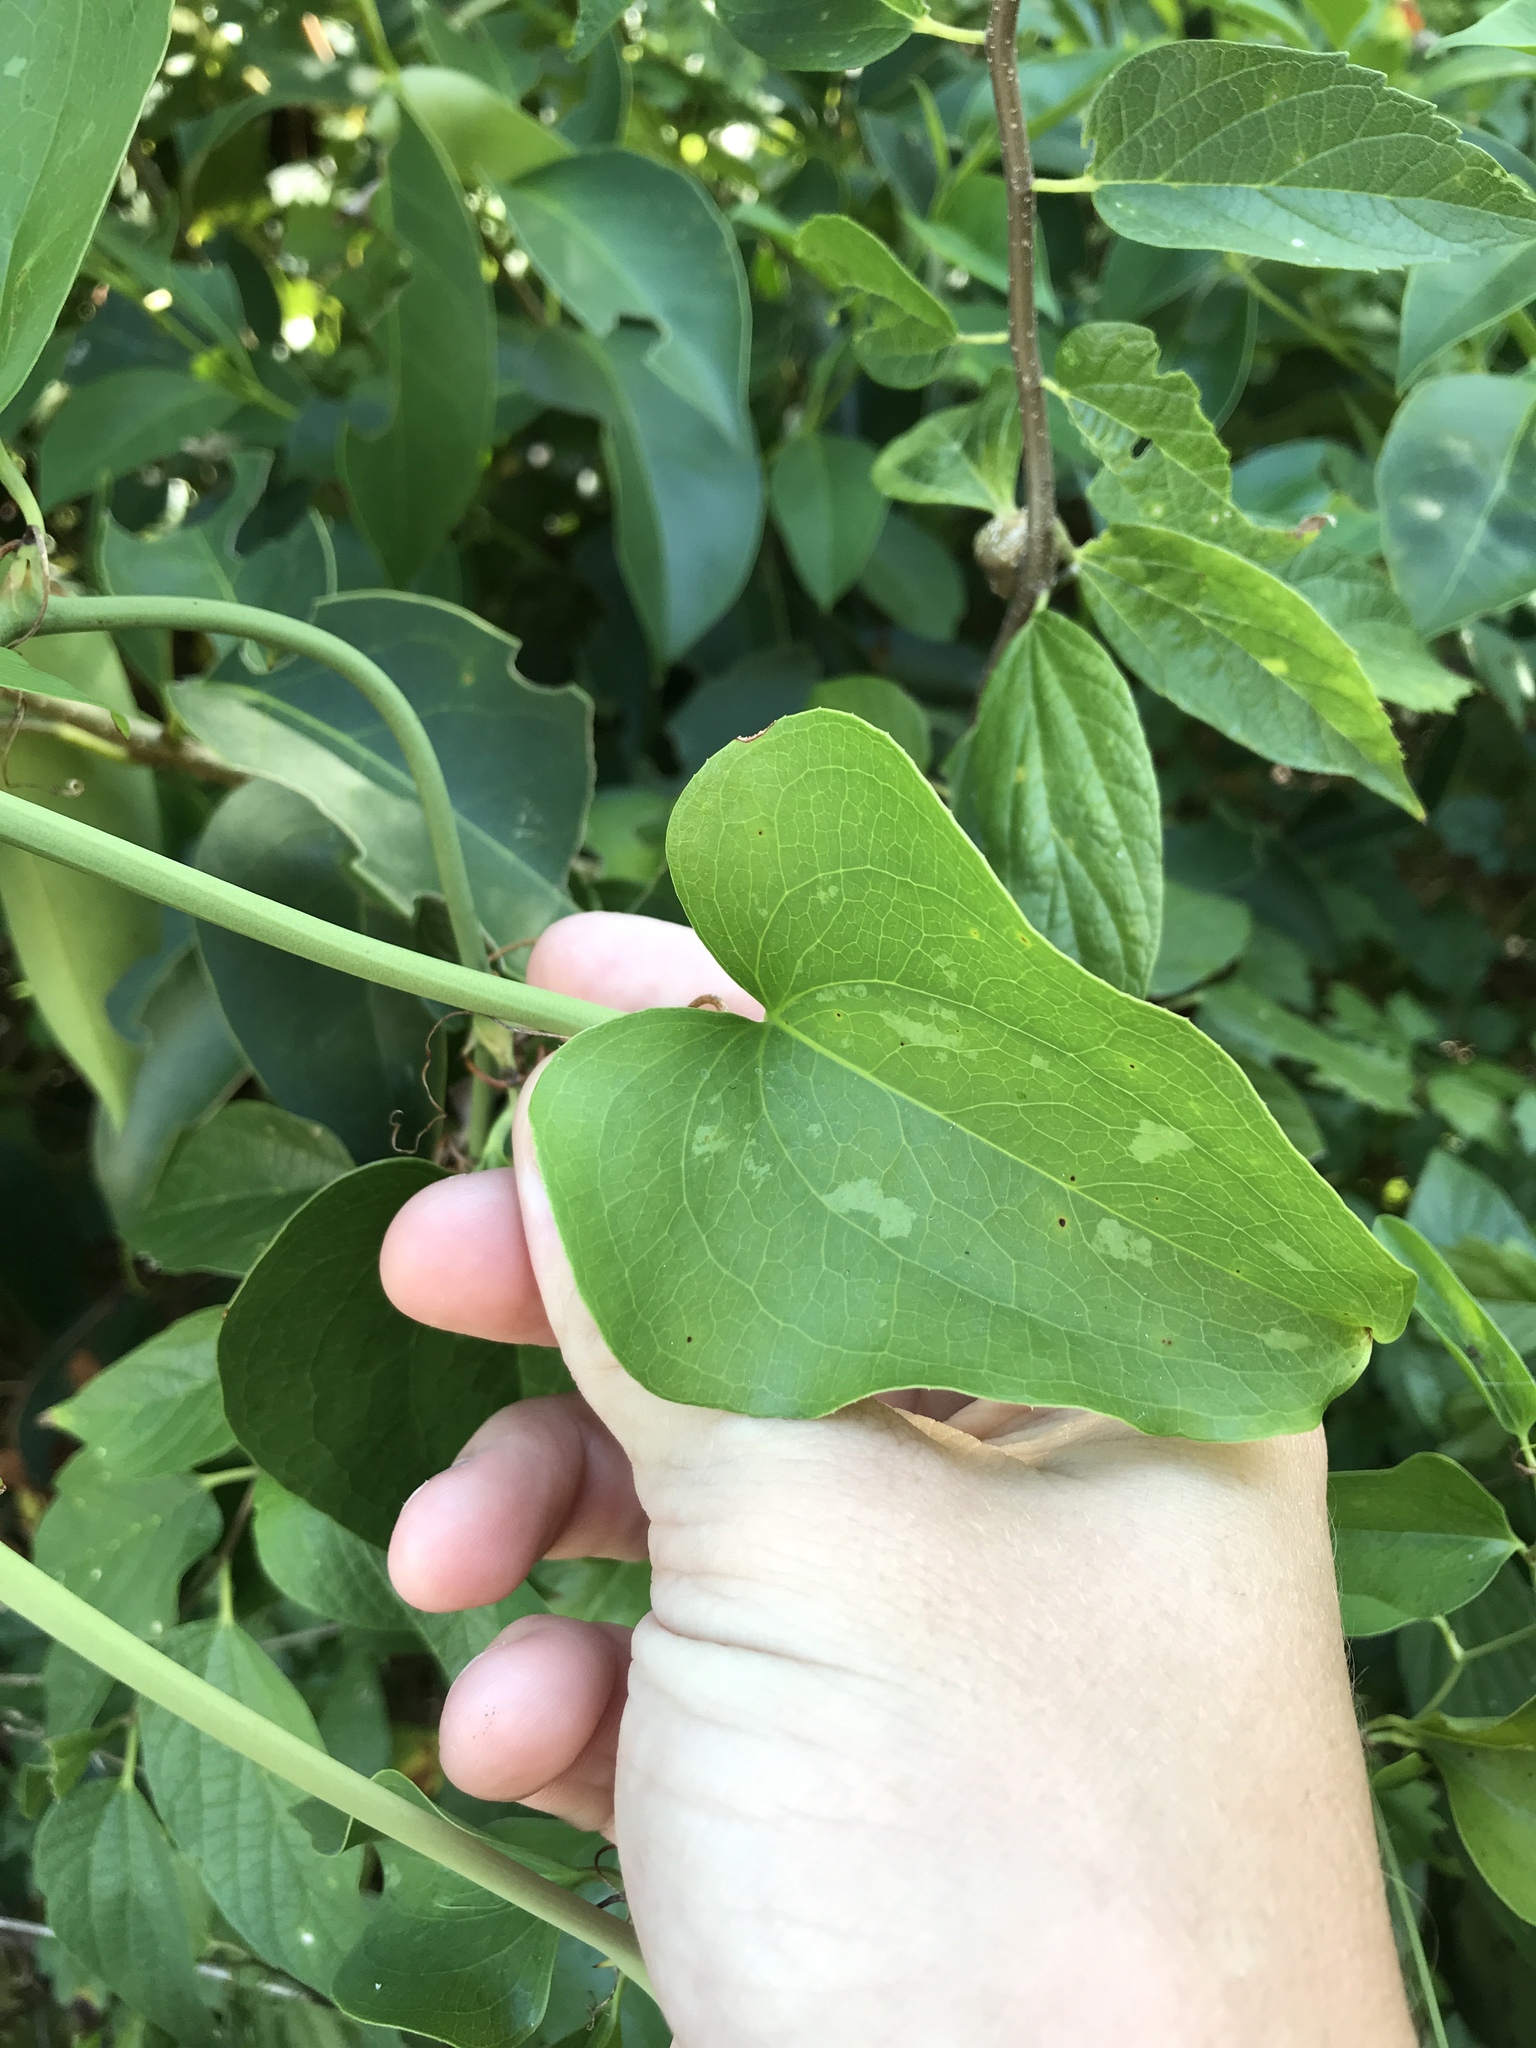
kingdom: Plantae
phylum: Tracheophyta
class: Liliopsida
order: Liliales
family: Smilacaceae
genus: Smilax
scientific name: Smilax bona-nox
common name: Catbrier
